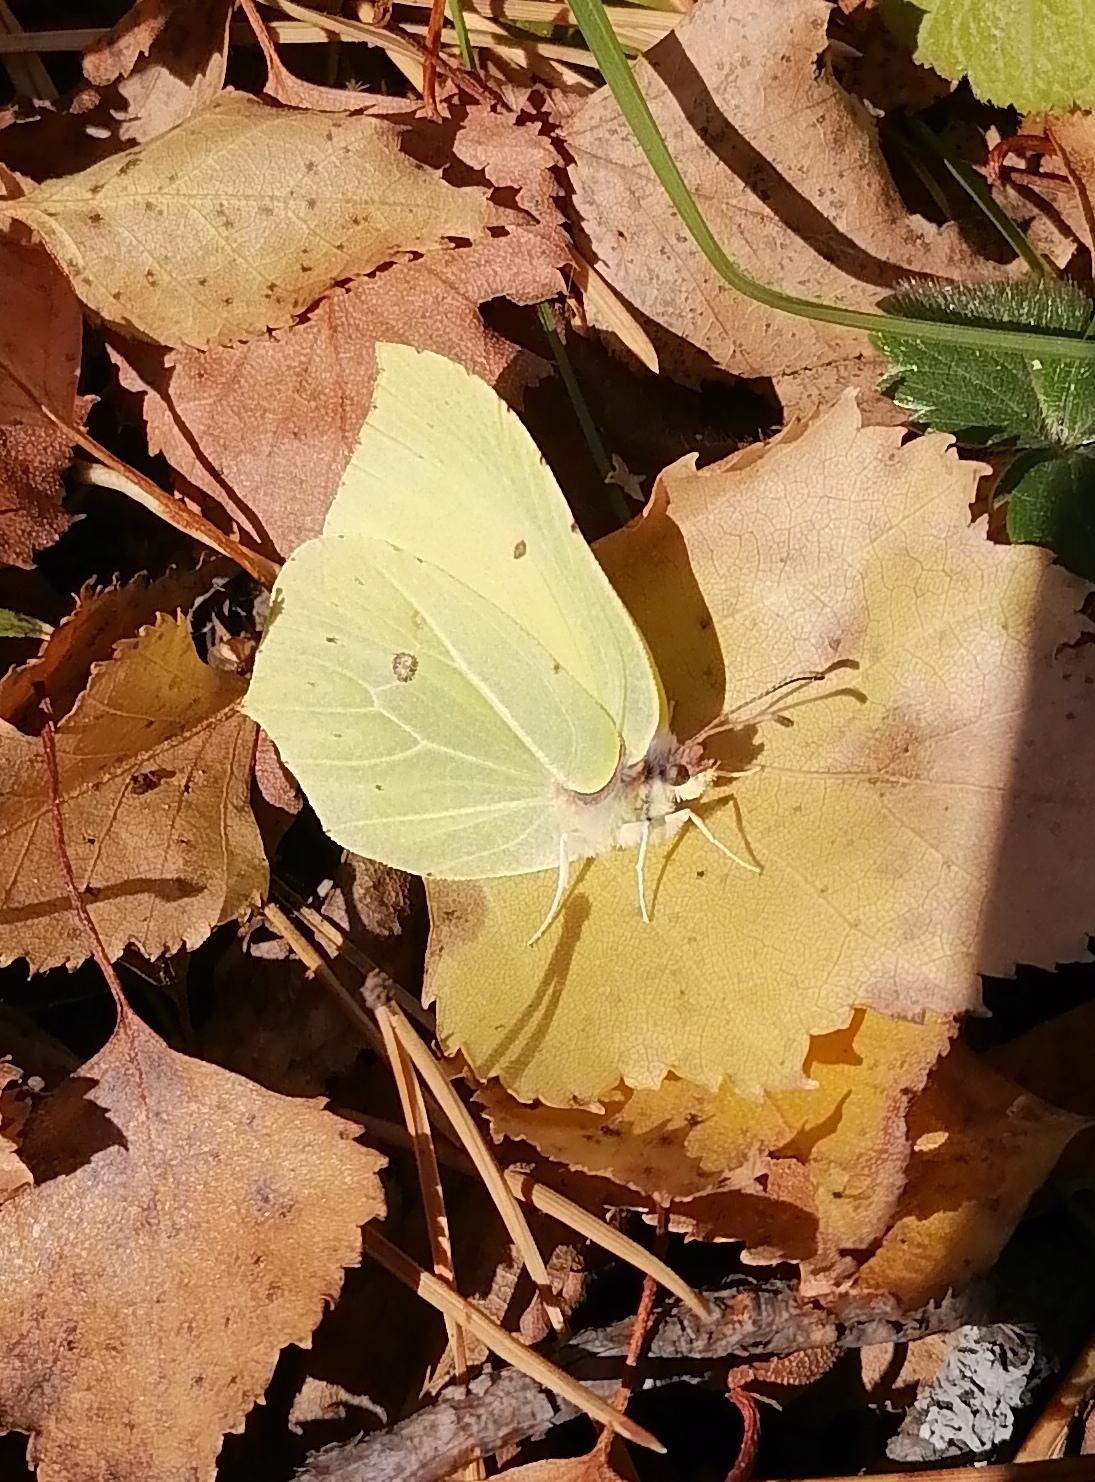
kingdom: Animalia
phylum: Arthropoda
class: Insecta
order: Lepidoptera
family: Pieridae
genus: Gonepteryx
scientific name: Gonepteryx rhamni
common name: Brimstone
